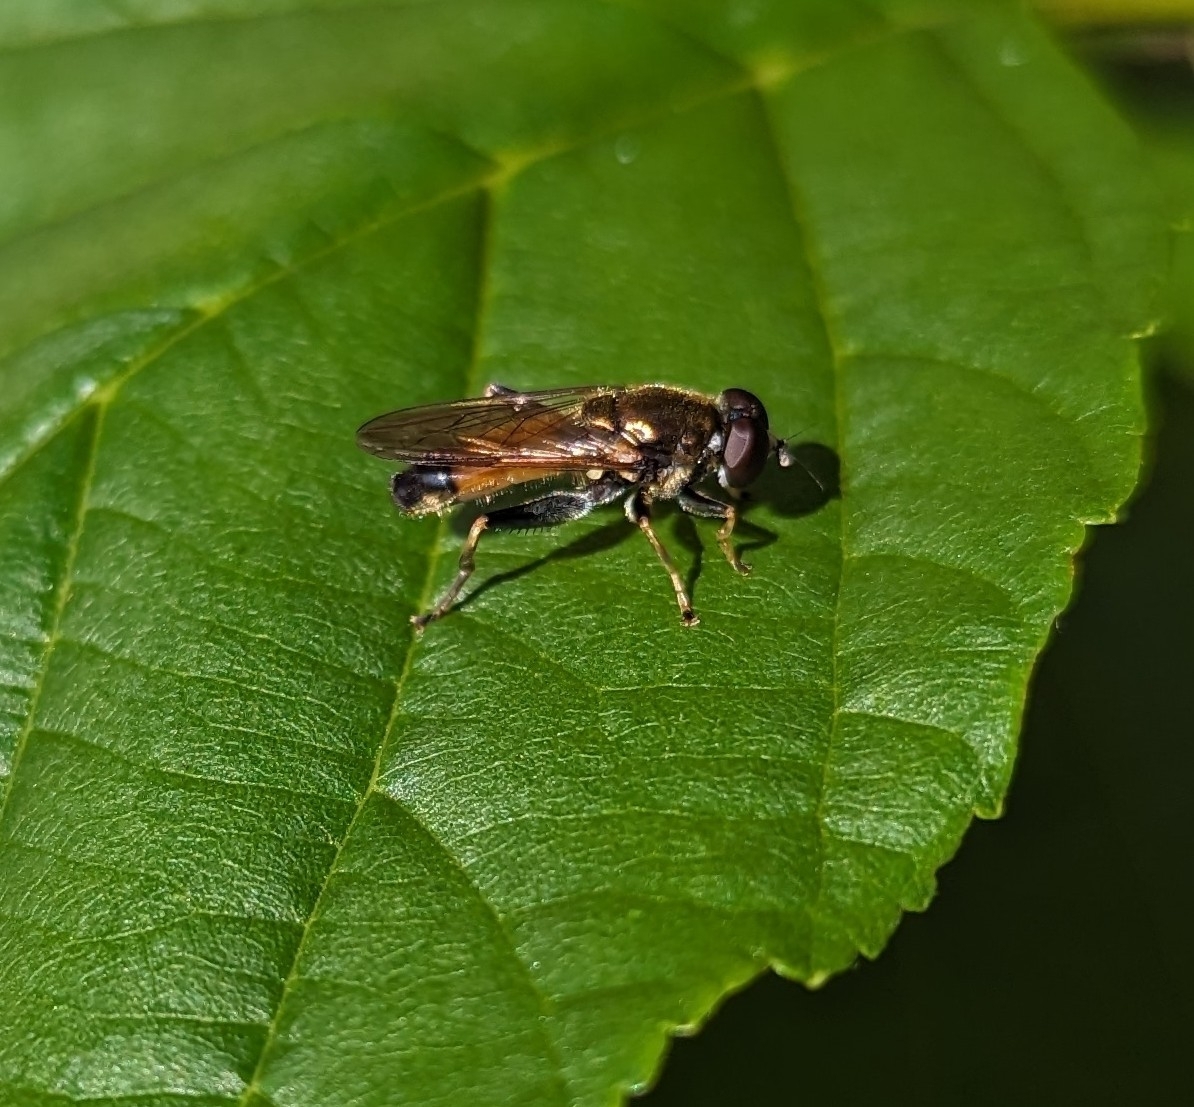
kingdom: Animalia
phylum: Arthropoda
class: Insecta
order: Diptera
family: Syrphidae
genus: Xylota
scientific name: Xylota segnis
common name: Brown-toed forest fly
